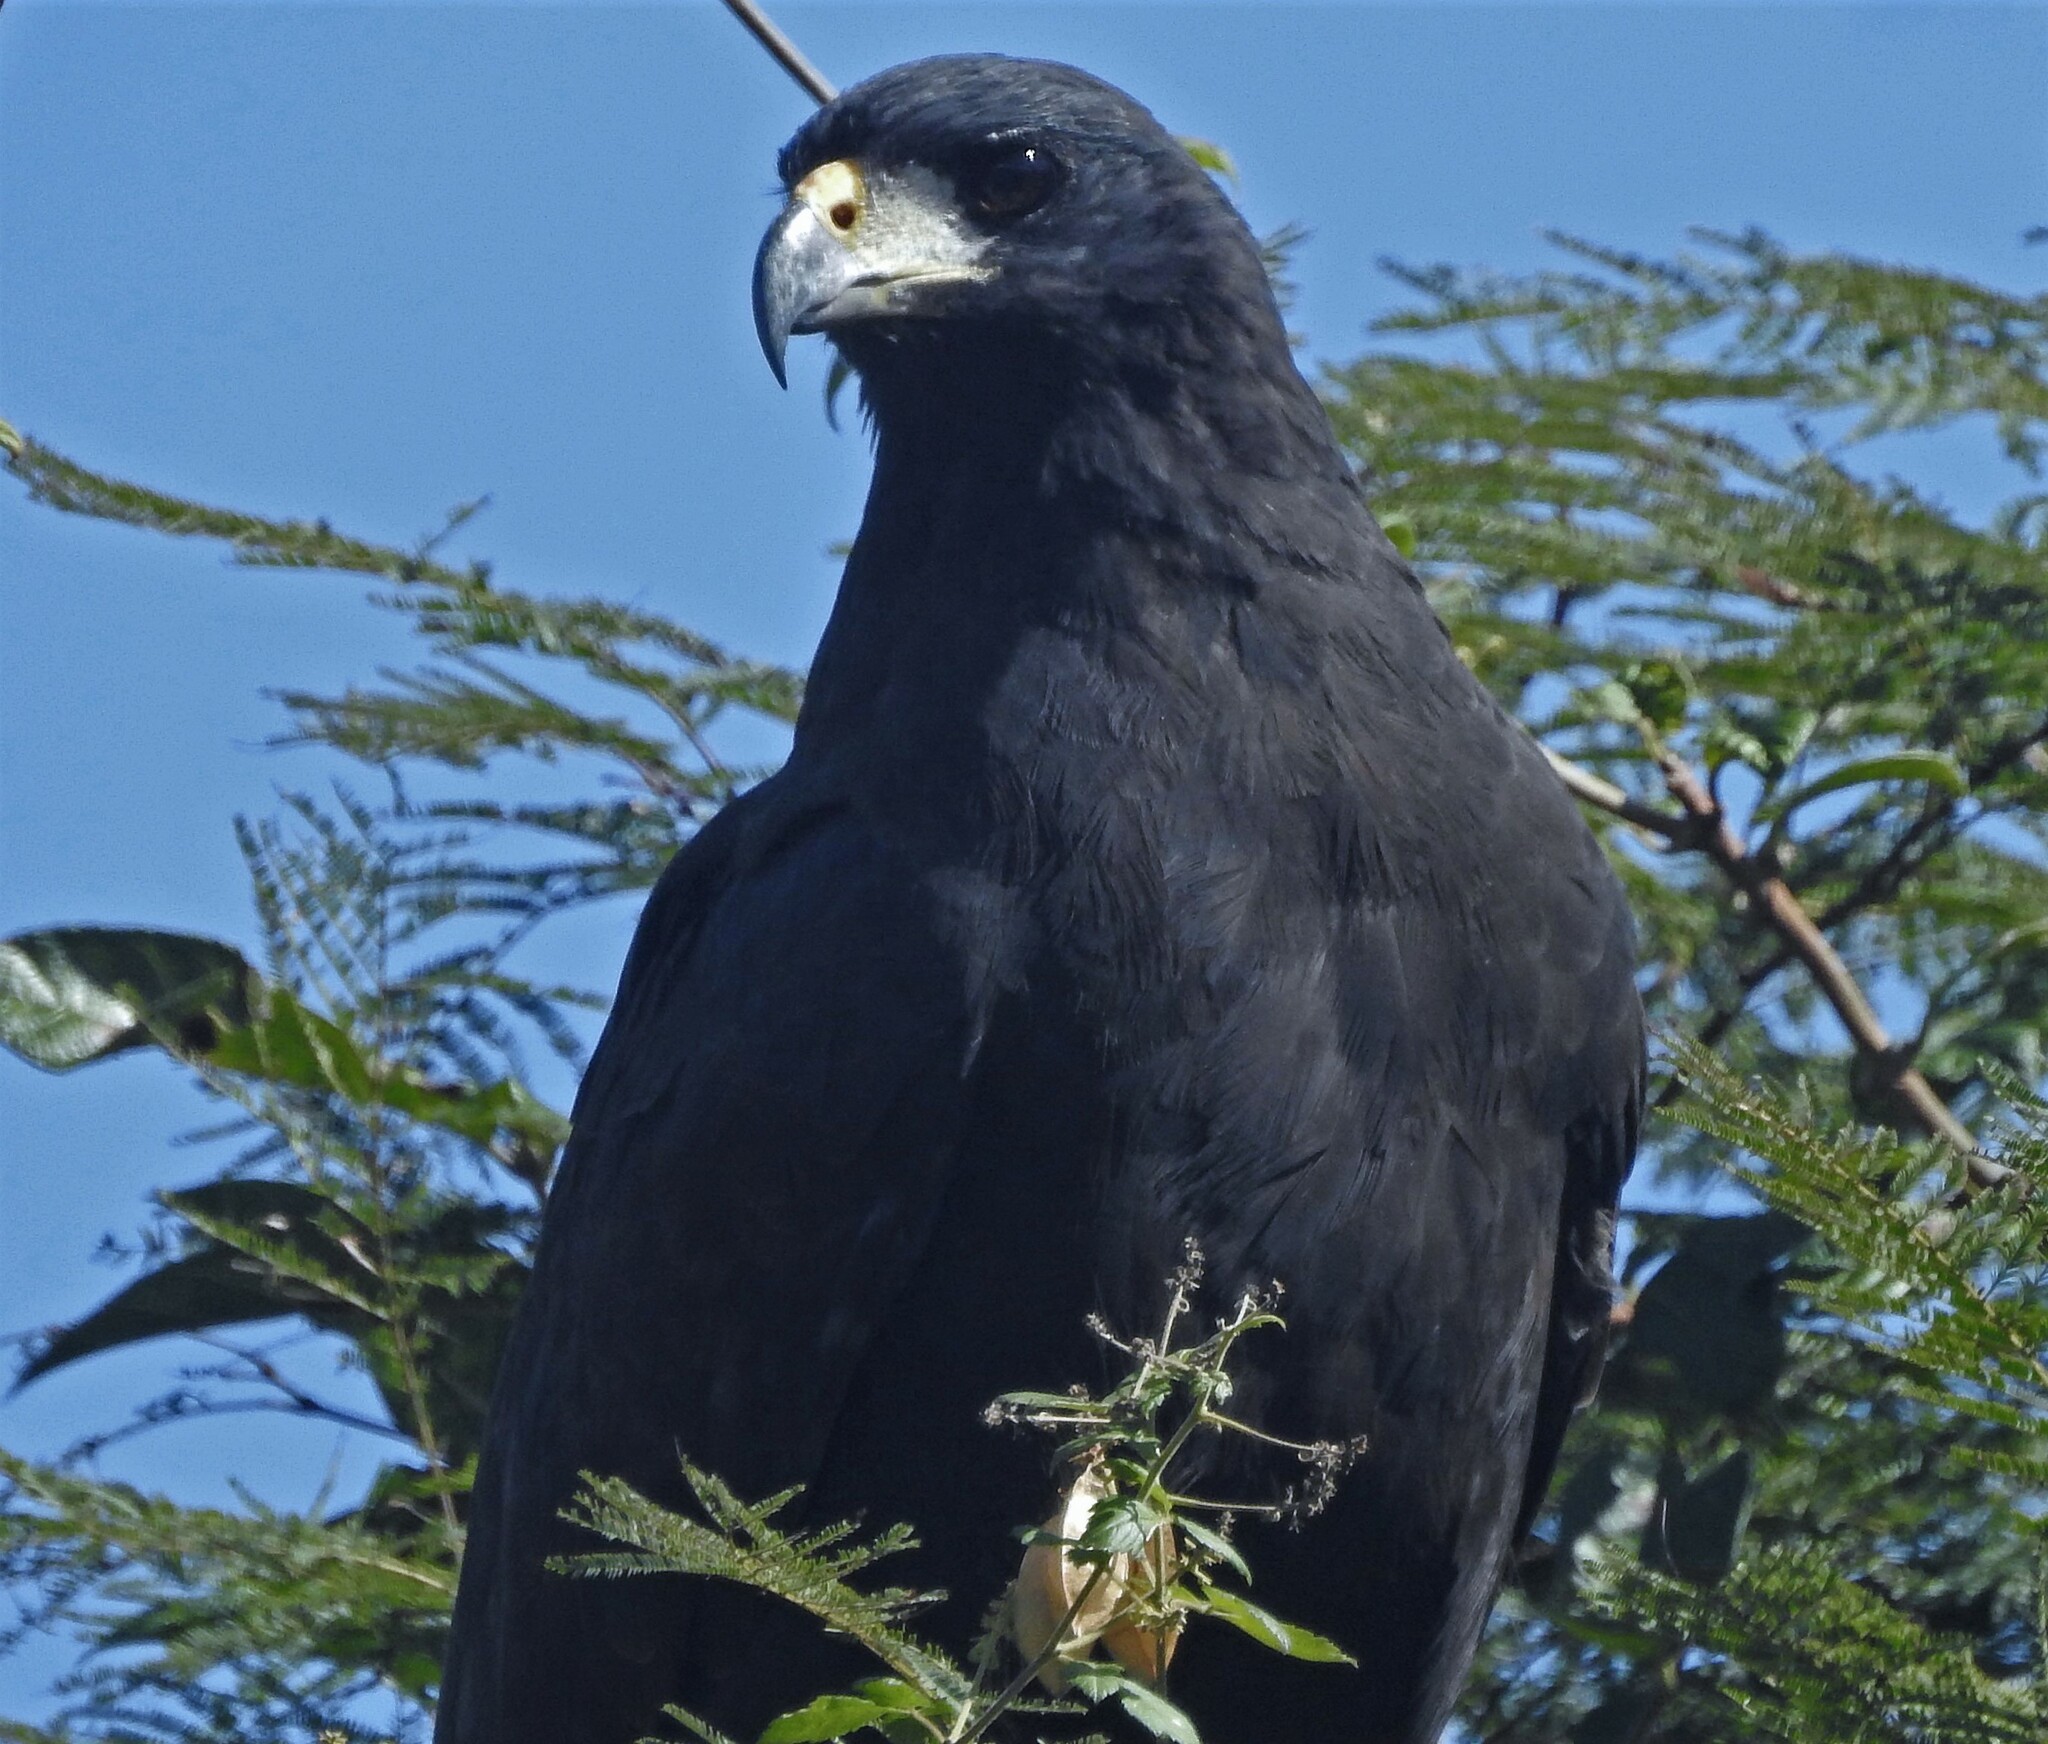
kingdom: Animalia
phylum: Chordata
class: Aves
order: Accipitriformes
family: Accipitridae
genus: Buteogallus
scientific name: Buteogallus urubitinga
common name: Great black hawk
